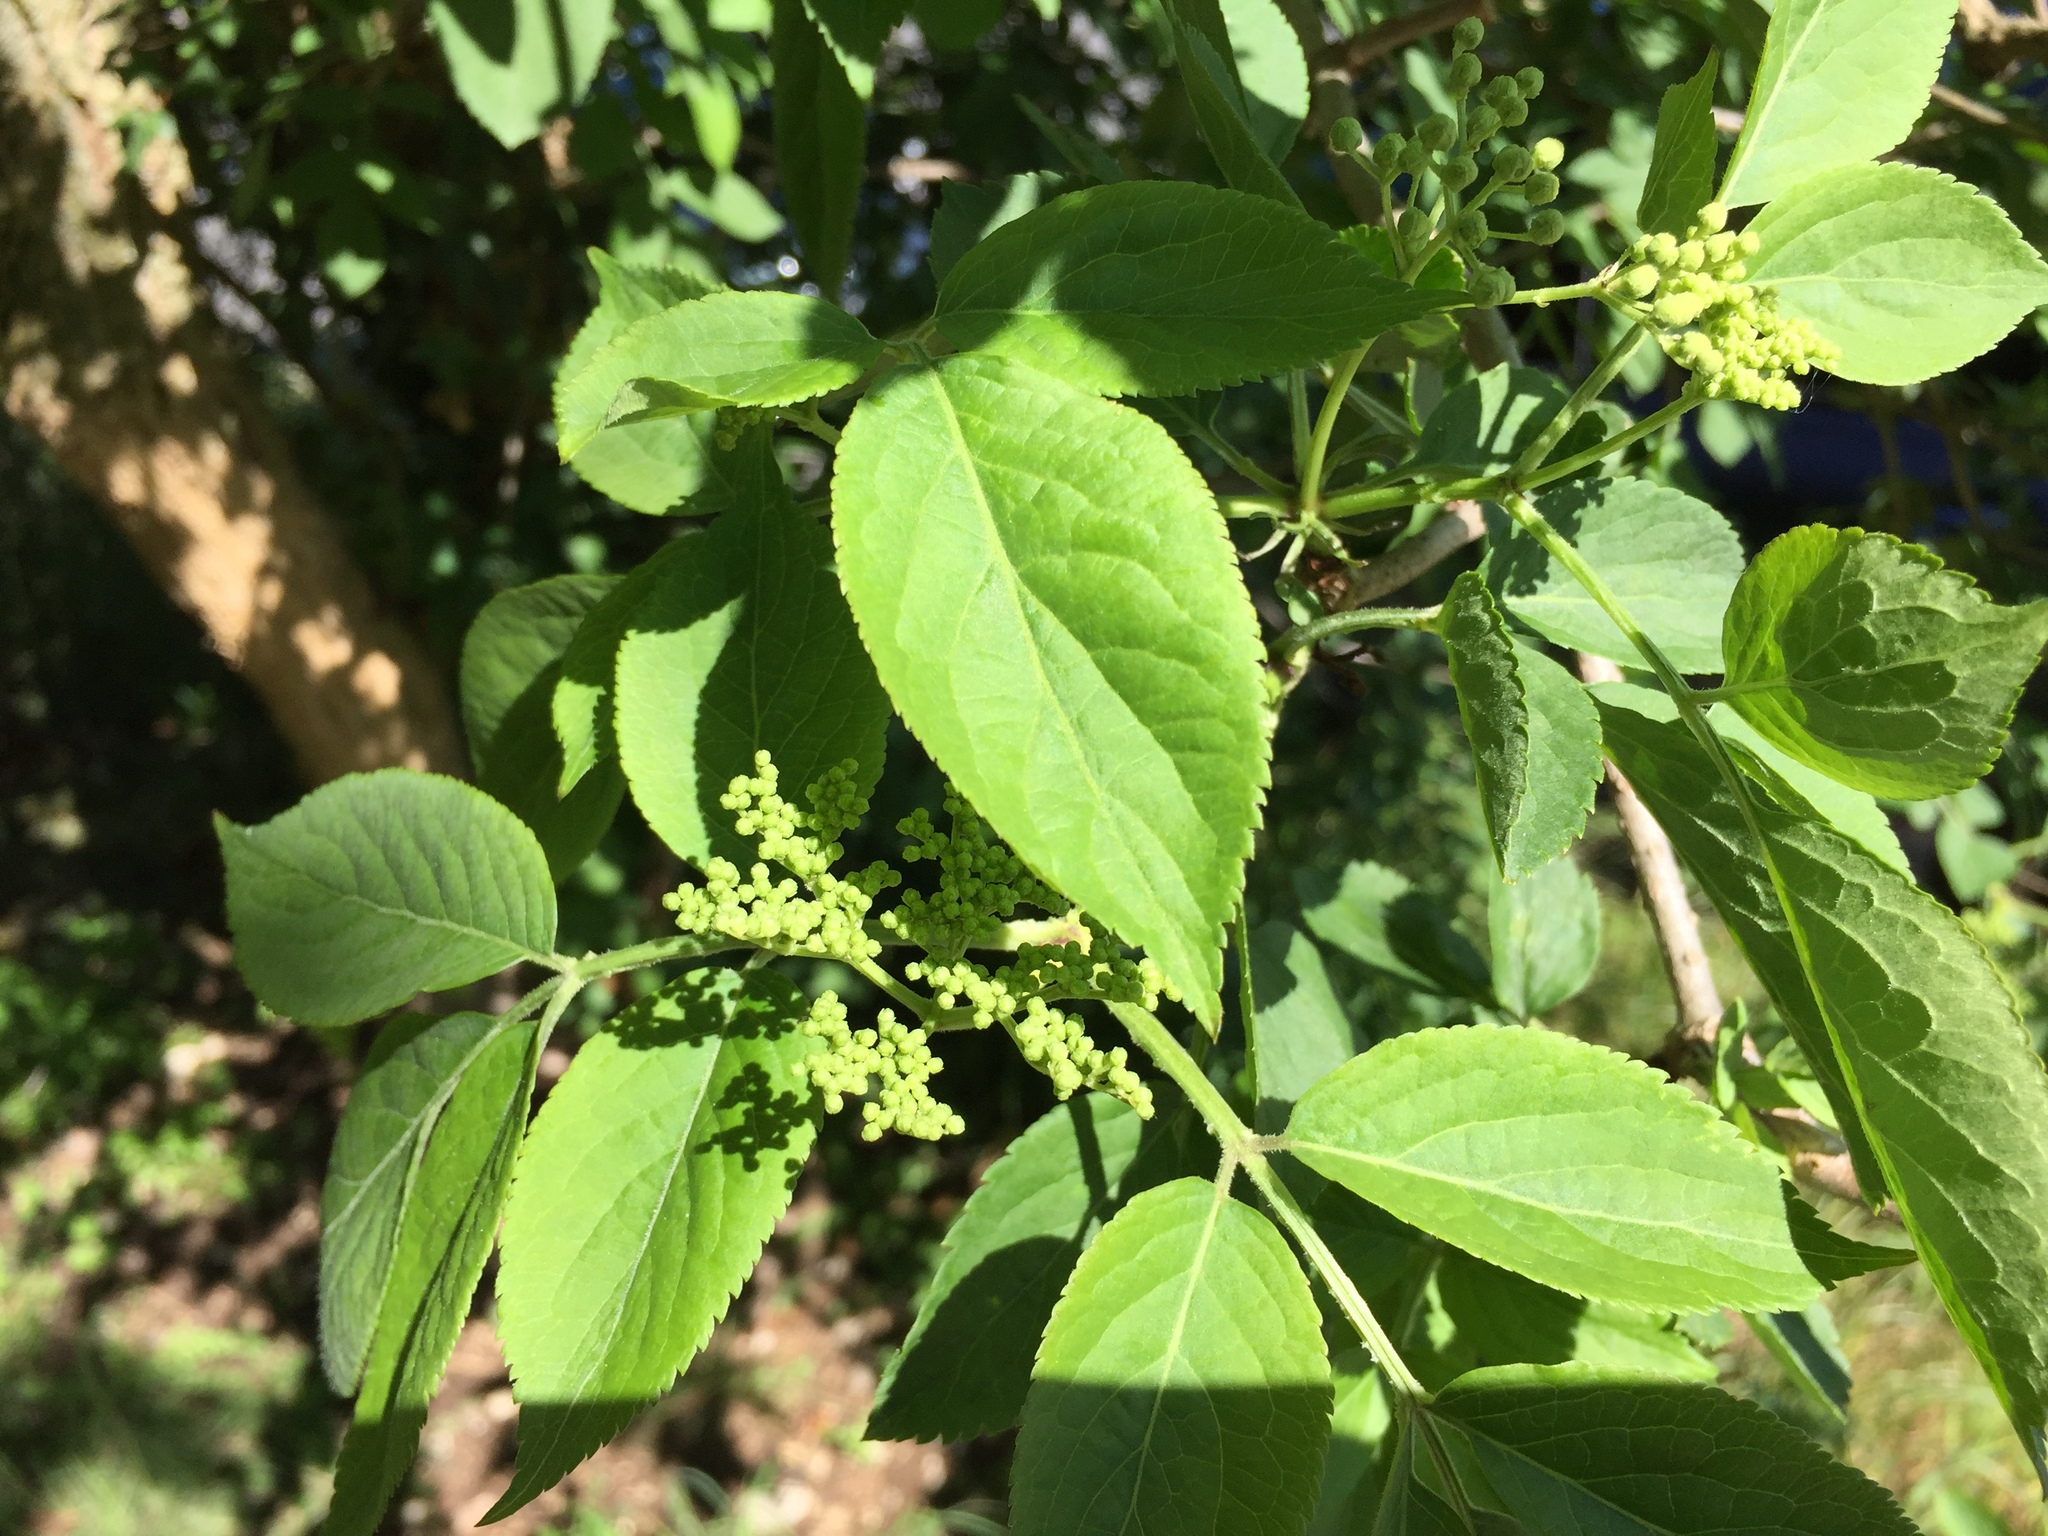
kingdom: Plantae
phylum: Tracheophyta
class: Magnoliopsida
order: Dipsacales
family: Viburnaceae
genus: Sambucus
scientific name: Sambucus nigra
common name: Elder
